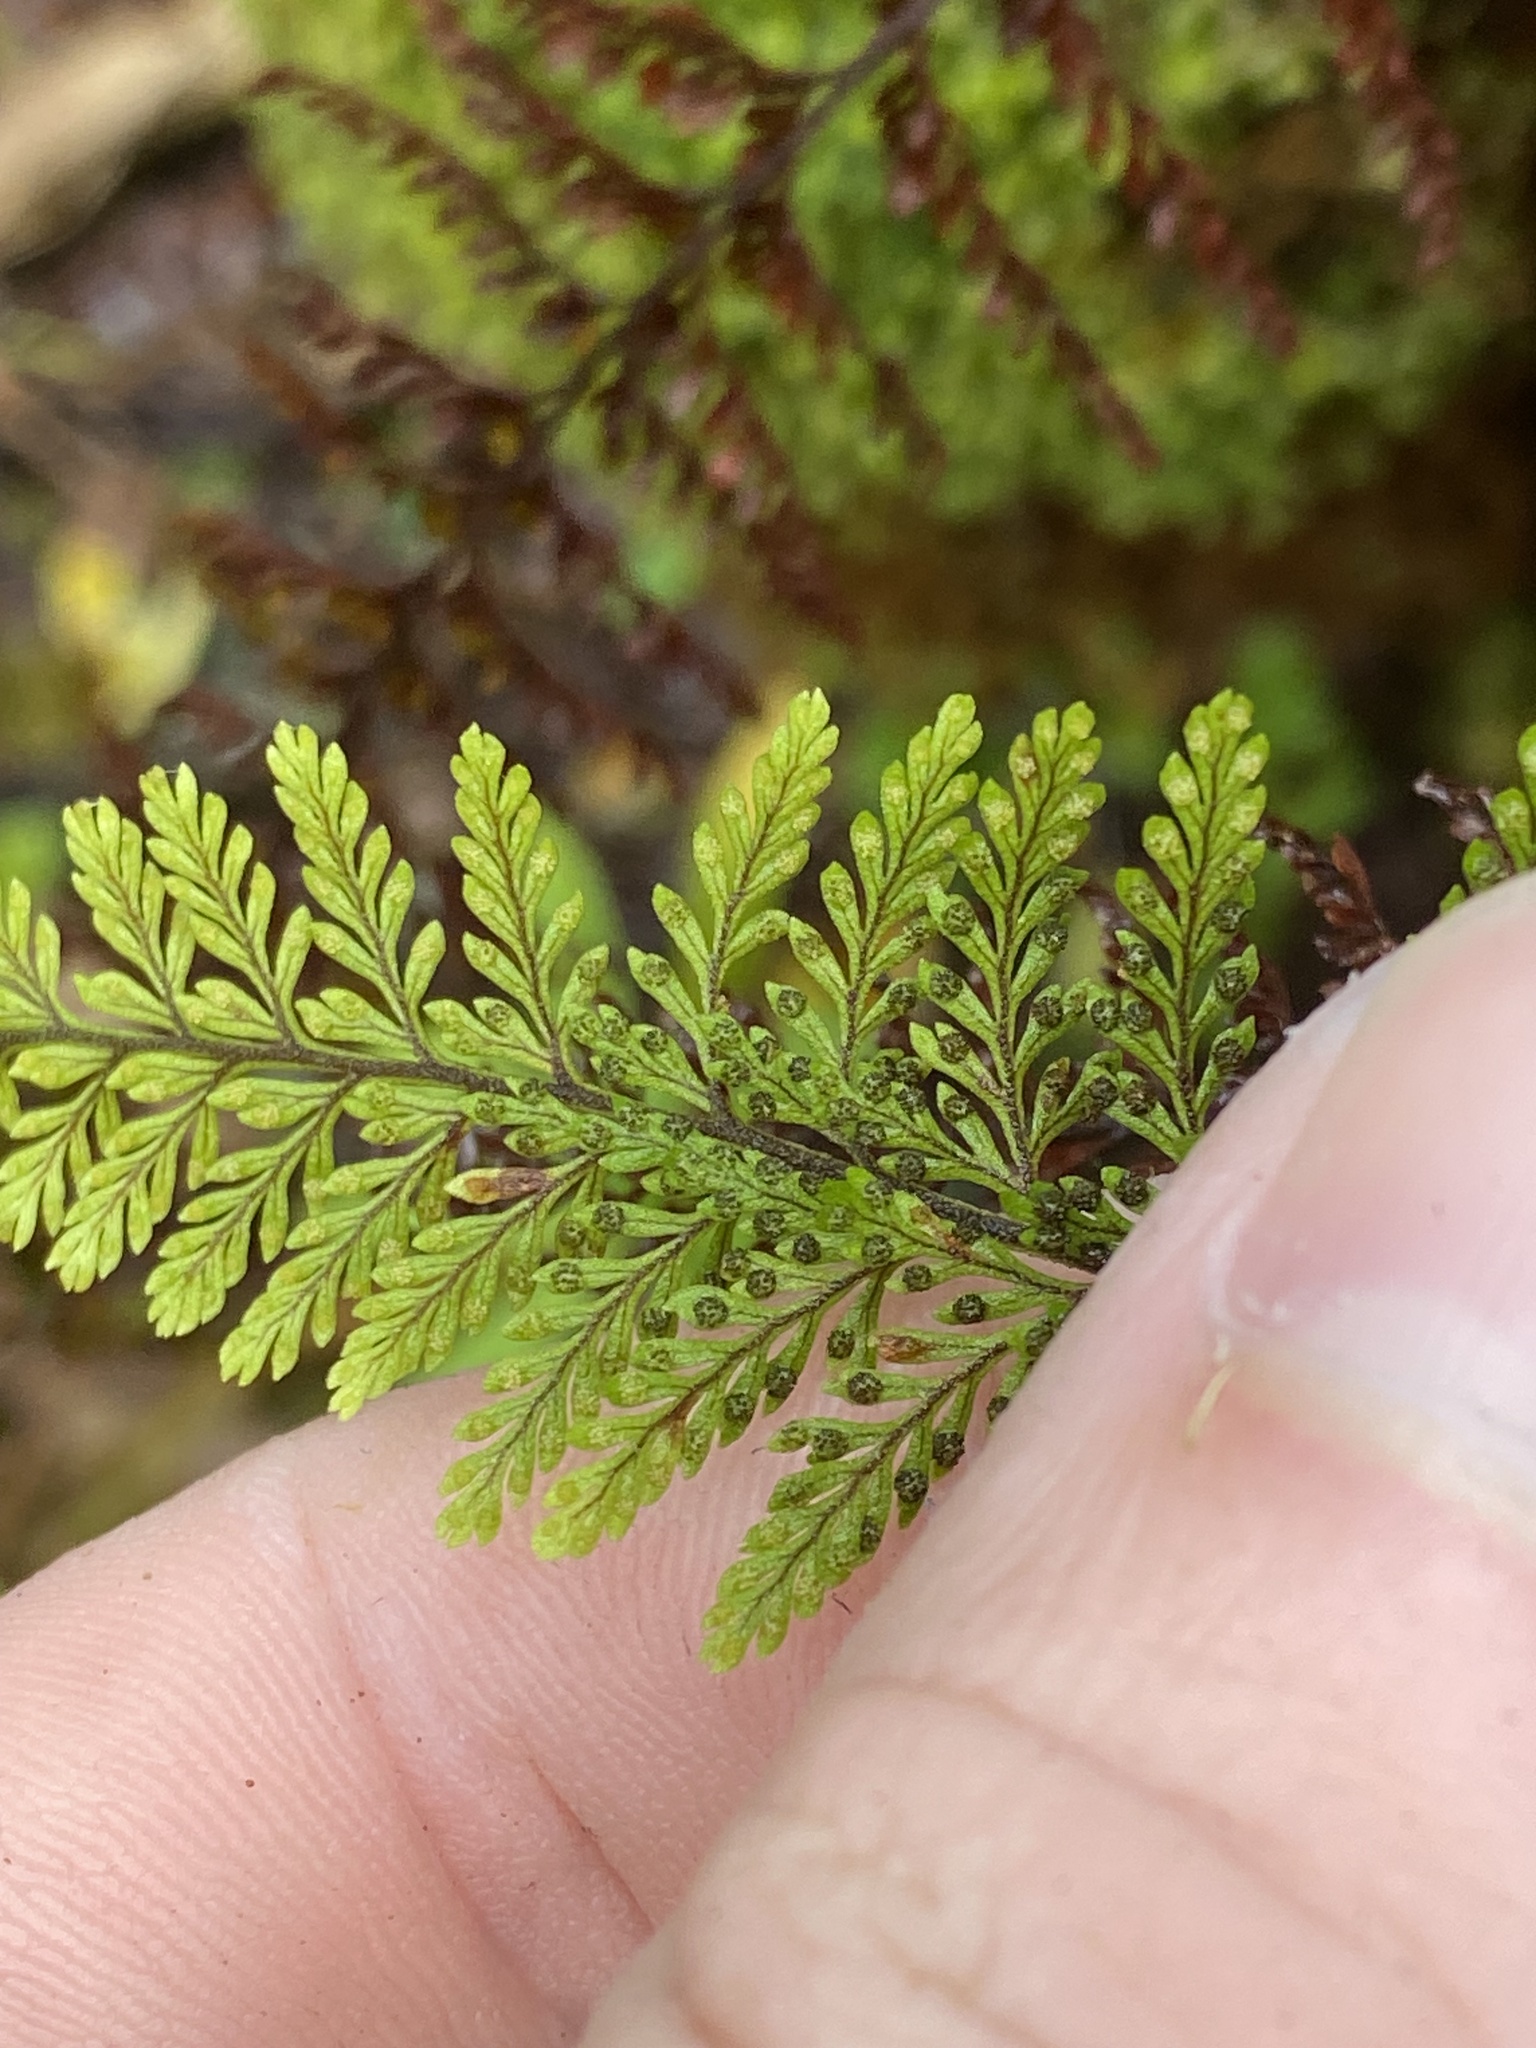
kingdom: Plantae
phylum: Tracheophyta
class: Polypodiopsida
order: Polypodiales
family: Polypodiaceae
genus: Adenophorus
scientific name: Adenophorus tripinnatifidus
